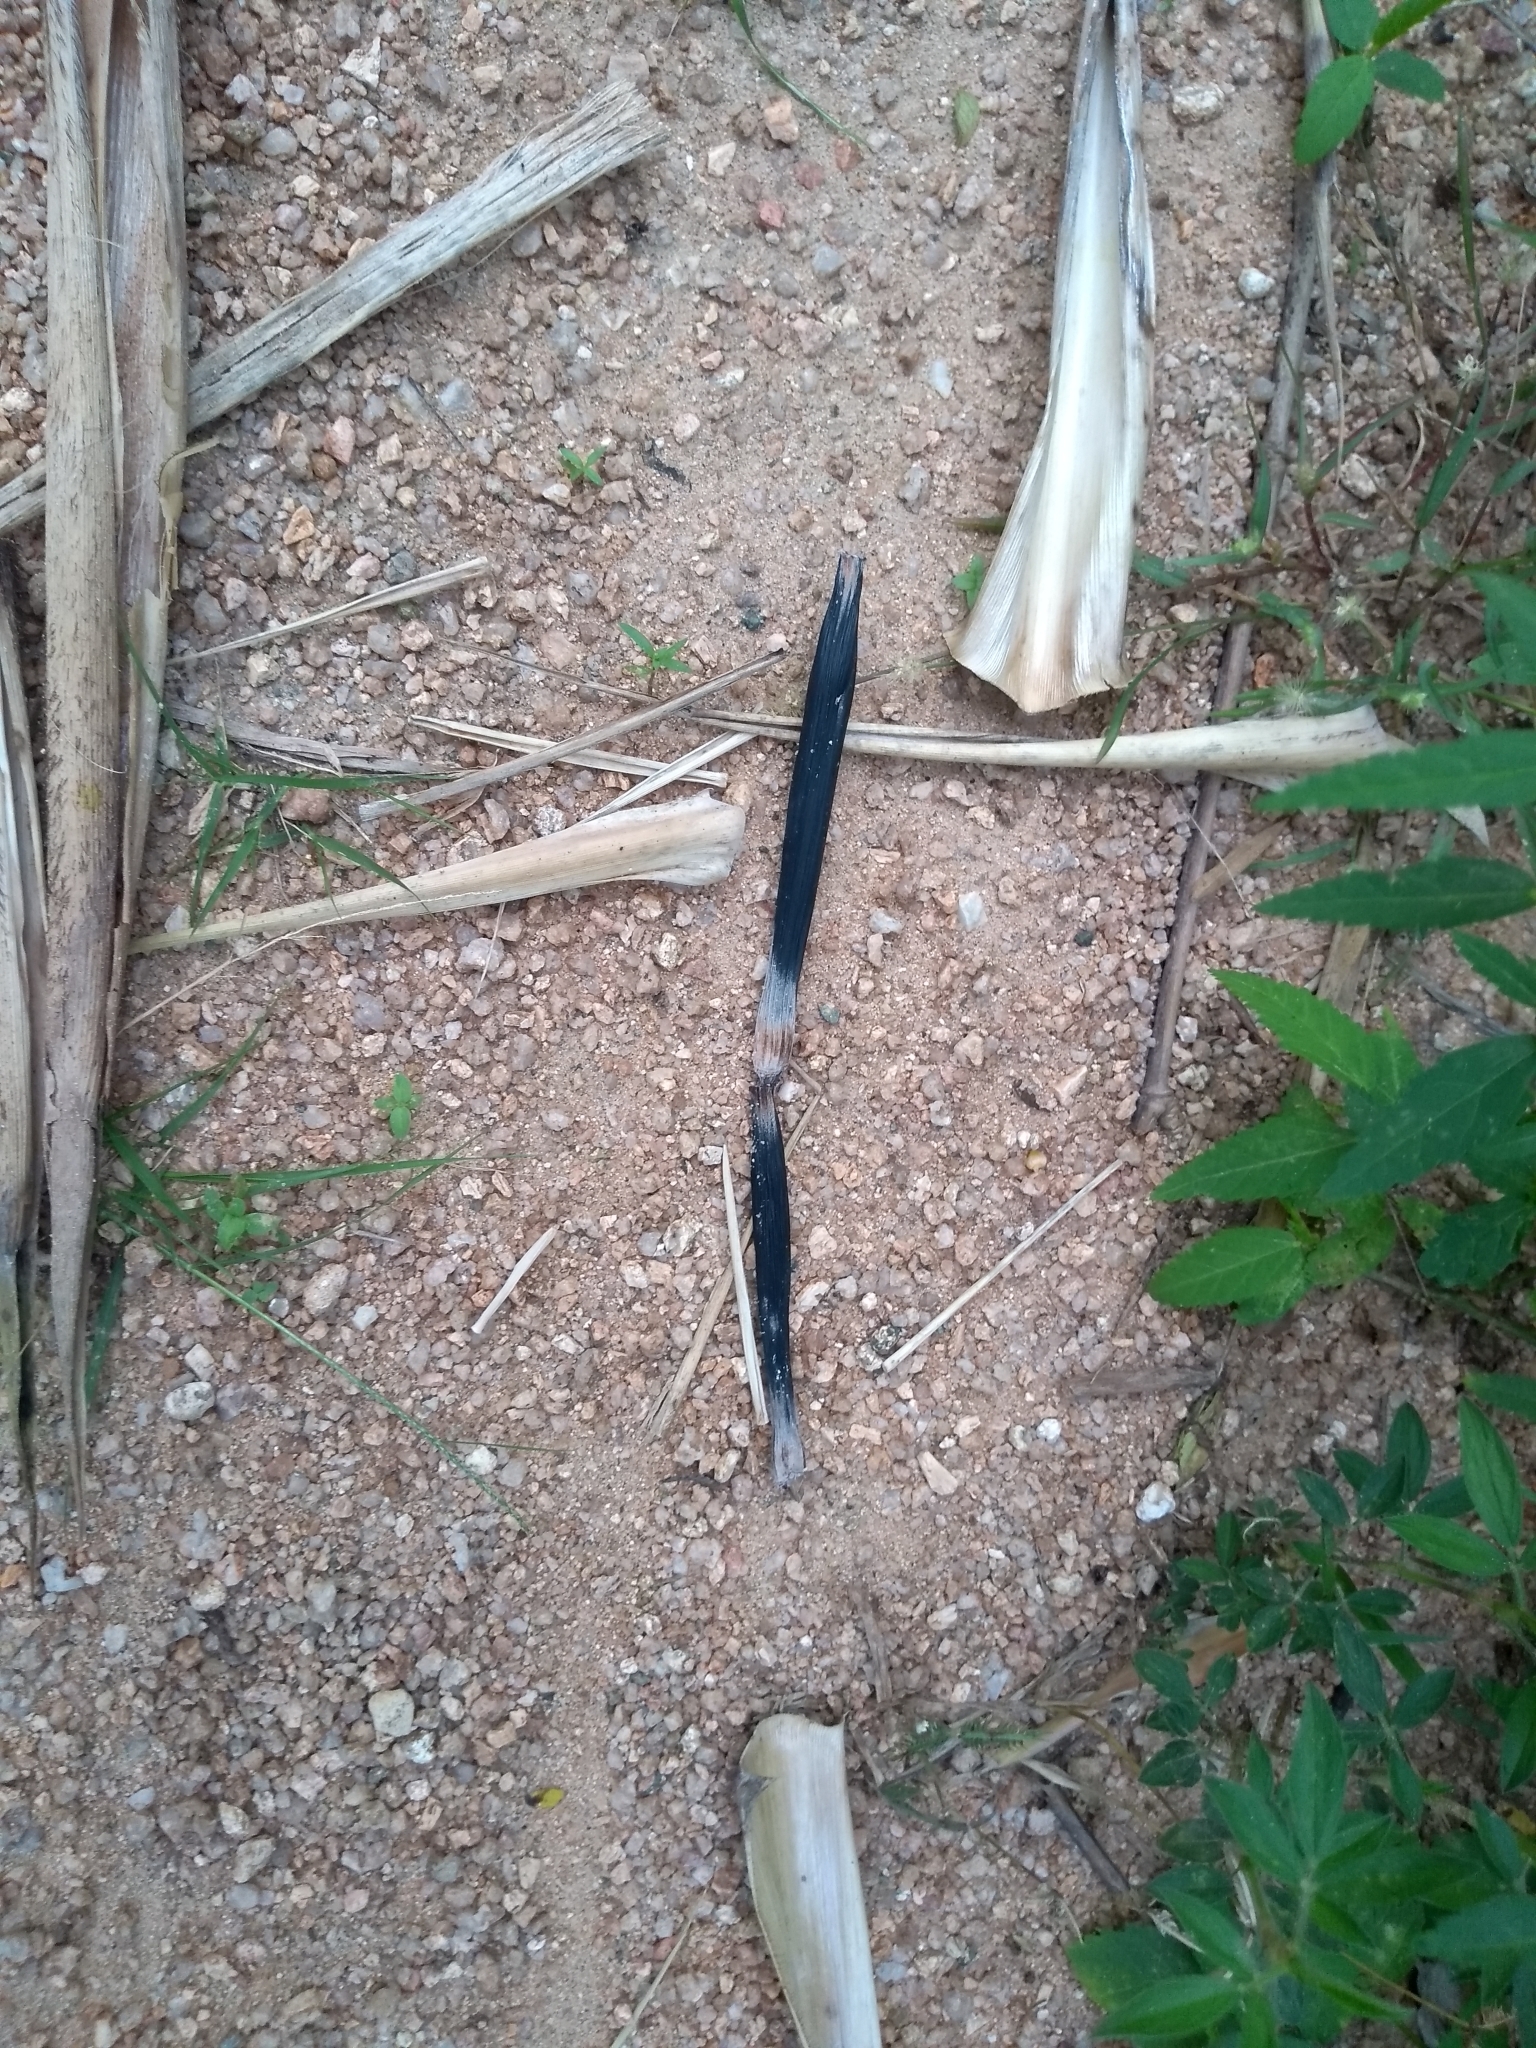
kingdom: Animalia
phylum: Chordata
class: Mammalia
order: Rodentia
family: Hystricidae
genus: Hystrix
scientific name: Hystrix indica
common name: Indian crested porcupine
